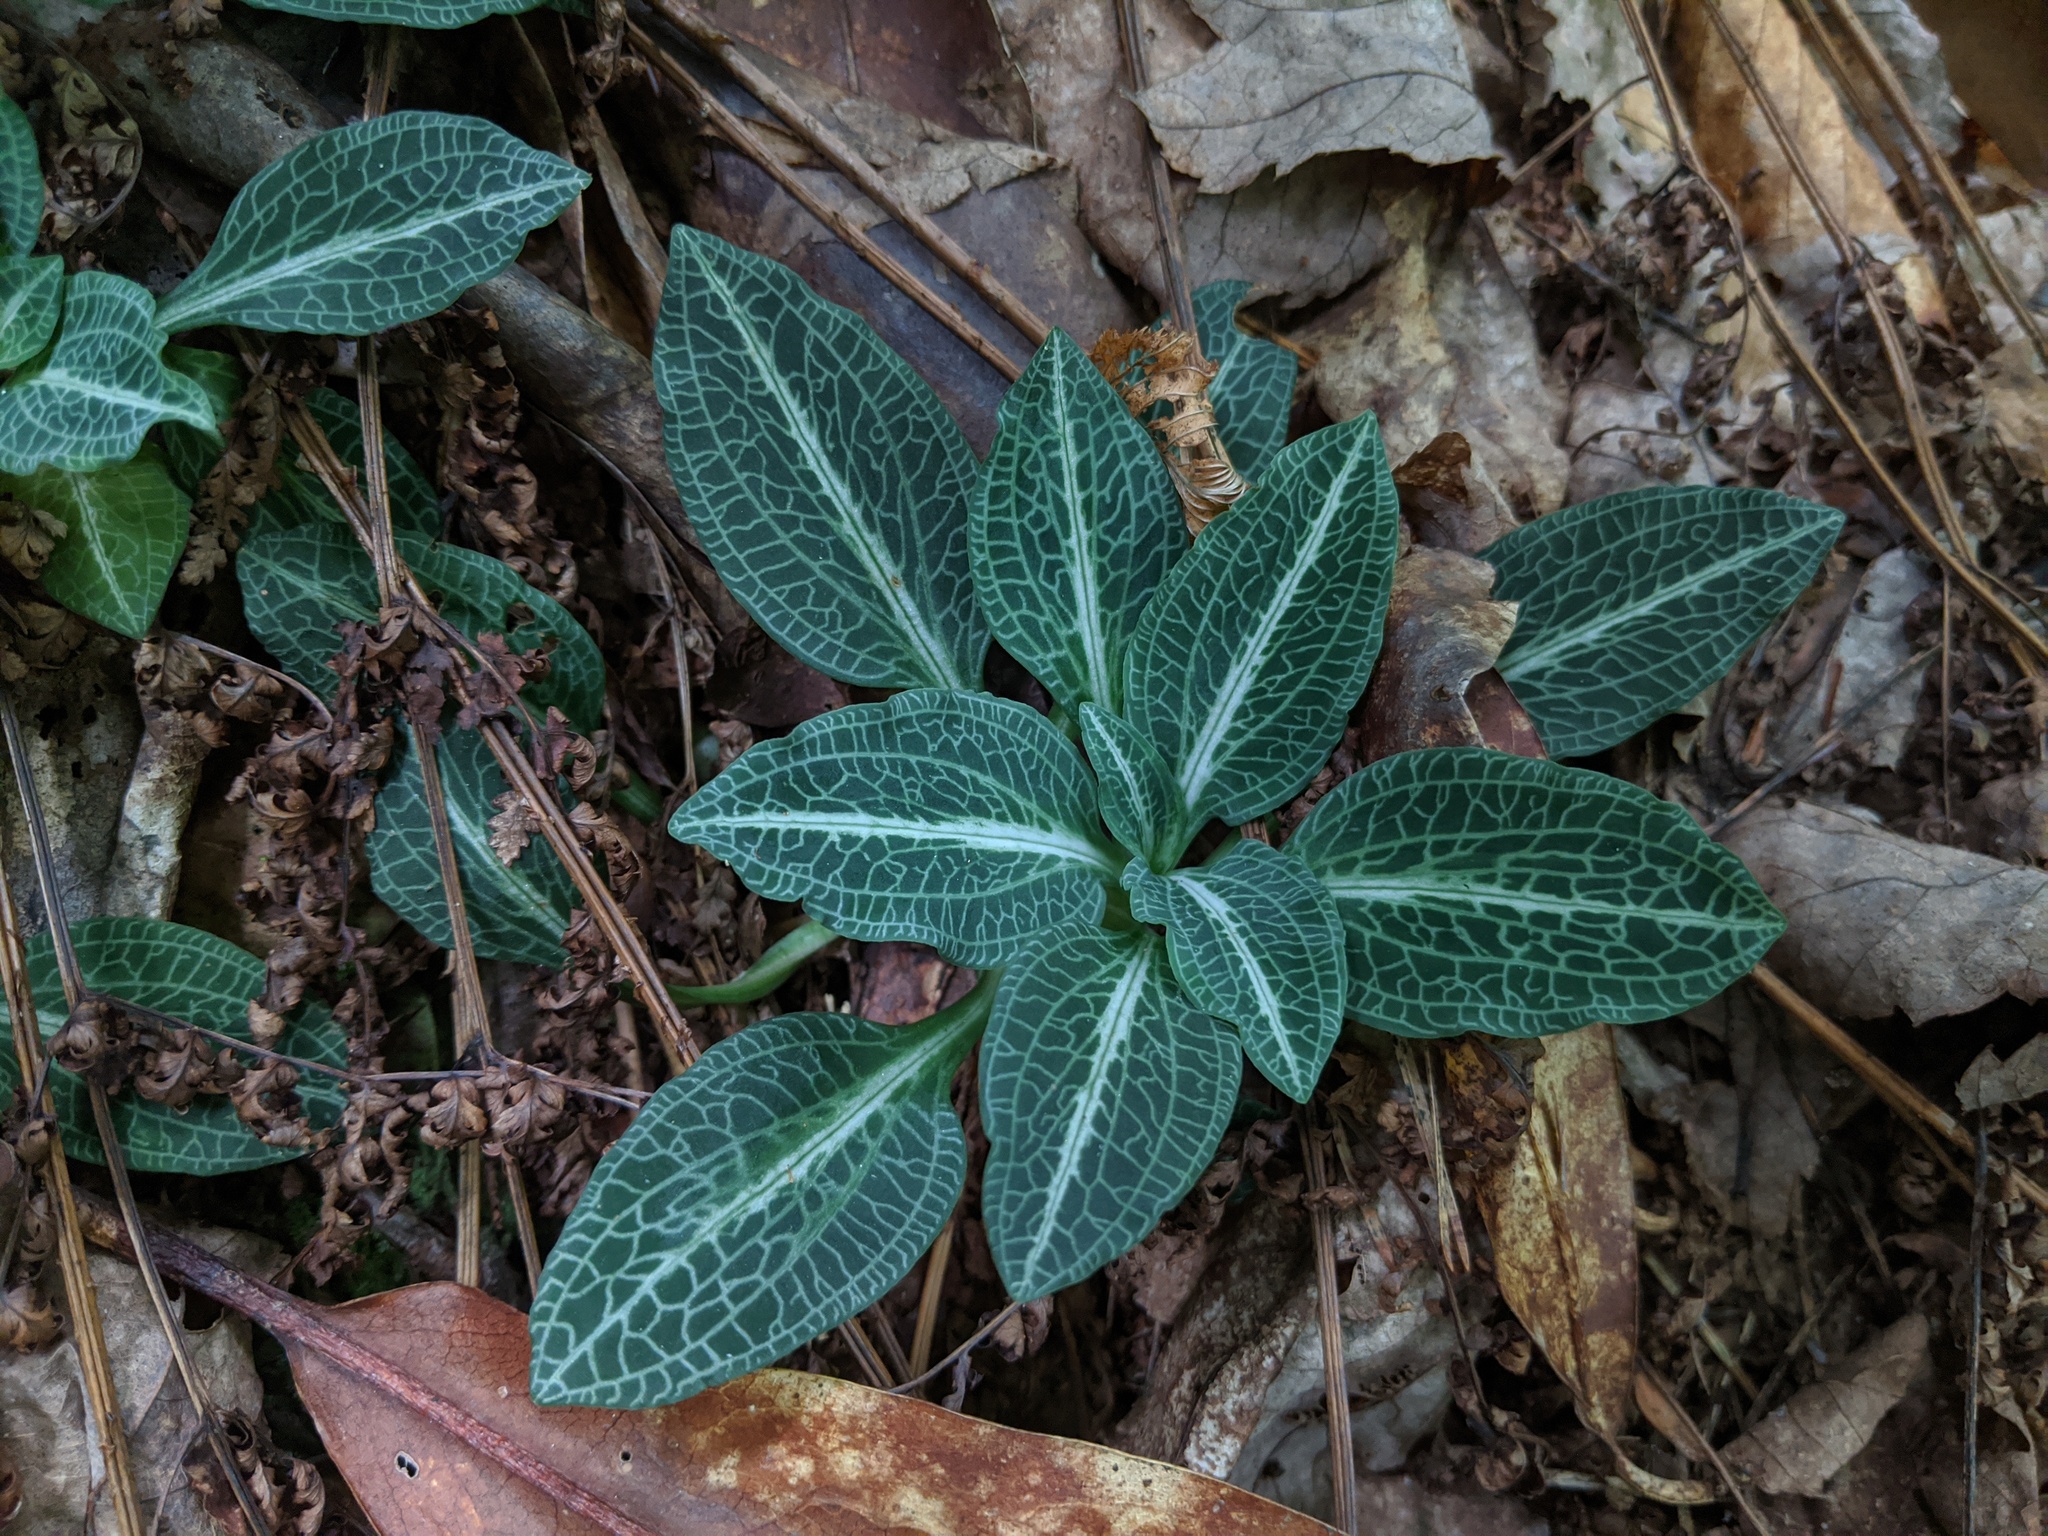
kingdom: Plantae
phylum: Tracheophyta
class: Liliopsida
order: Asparagales
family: Orchidaceae
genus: Goodyera
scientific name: Goodyera pubescens
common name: Downy rattlesnake-plantain
